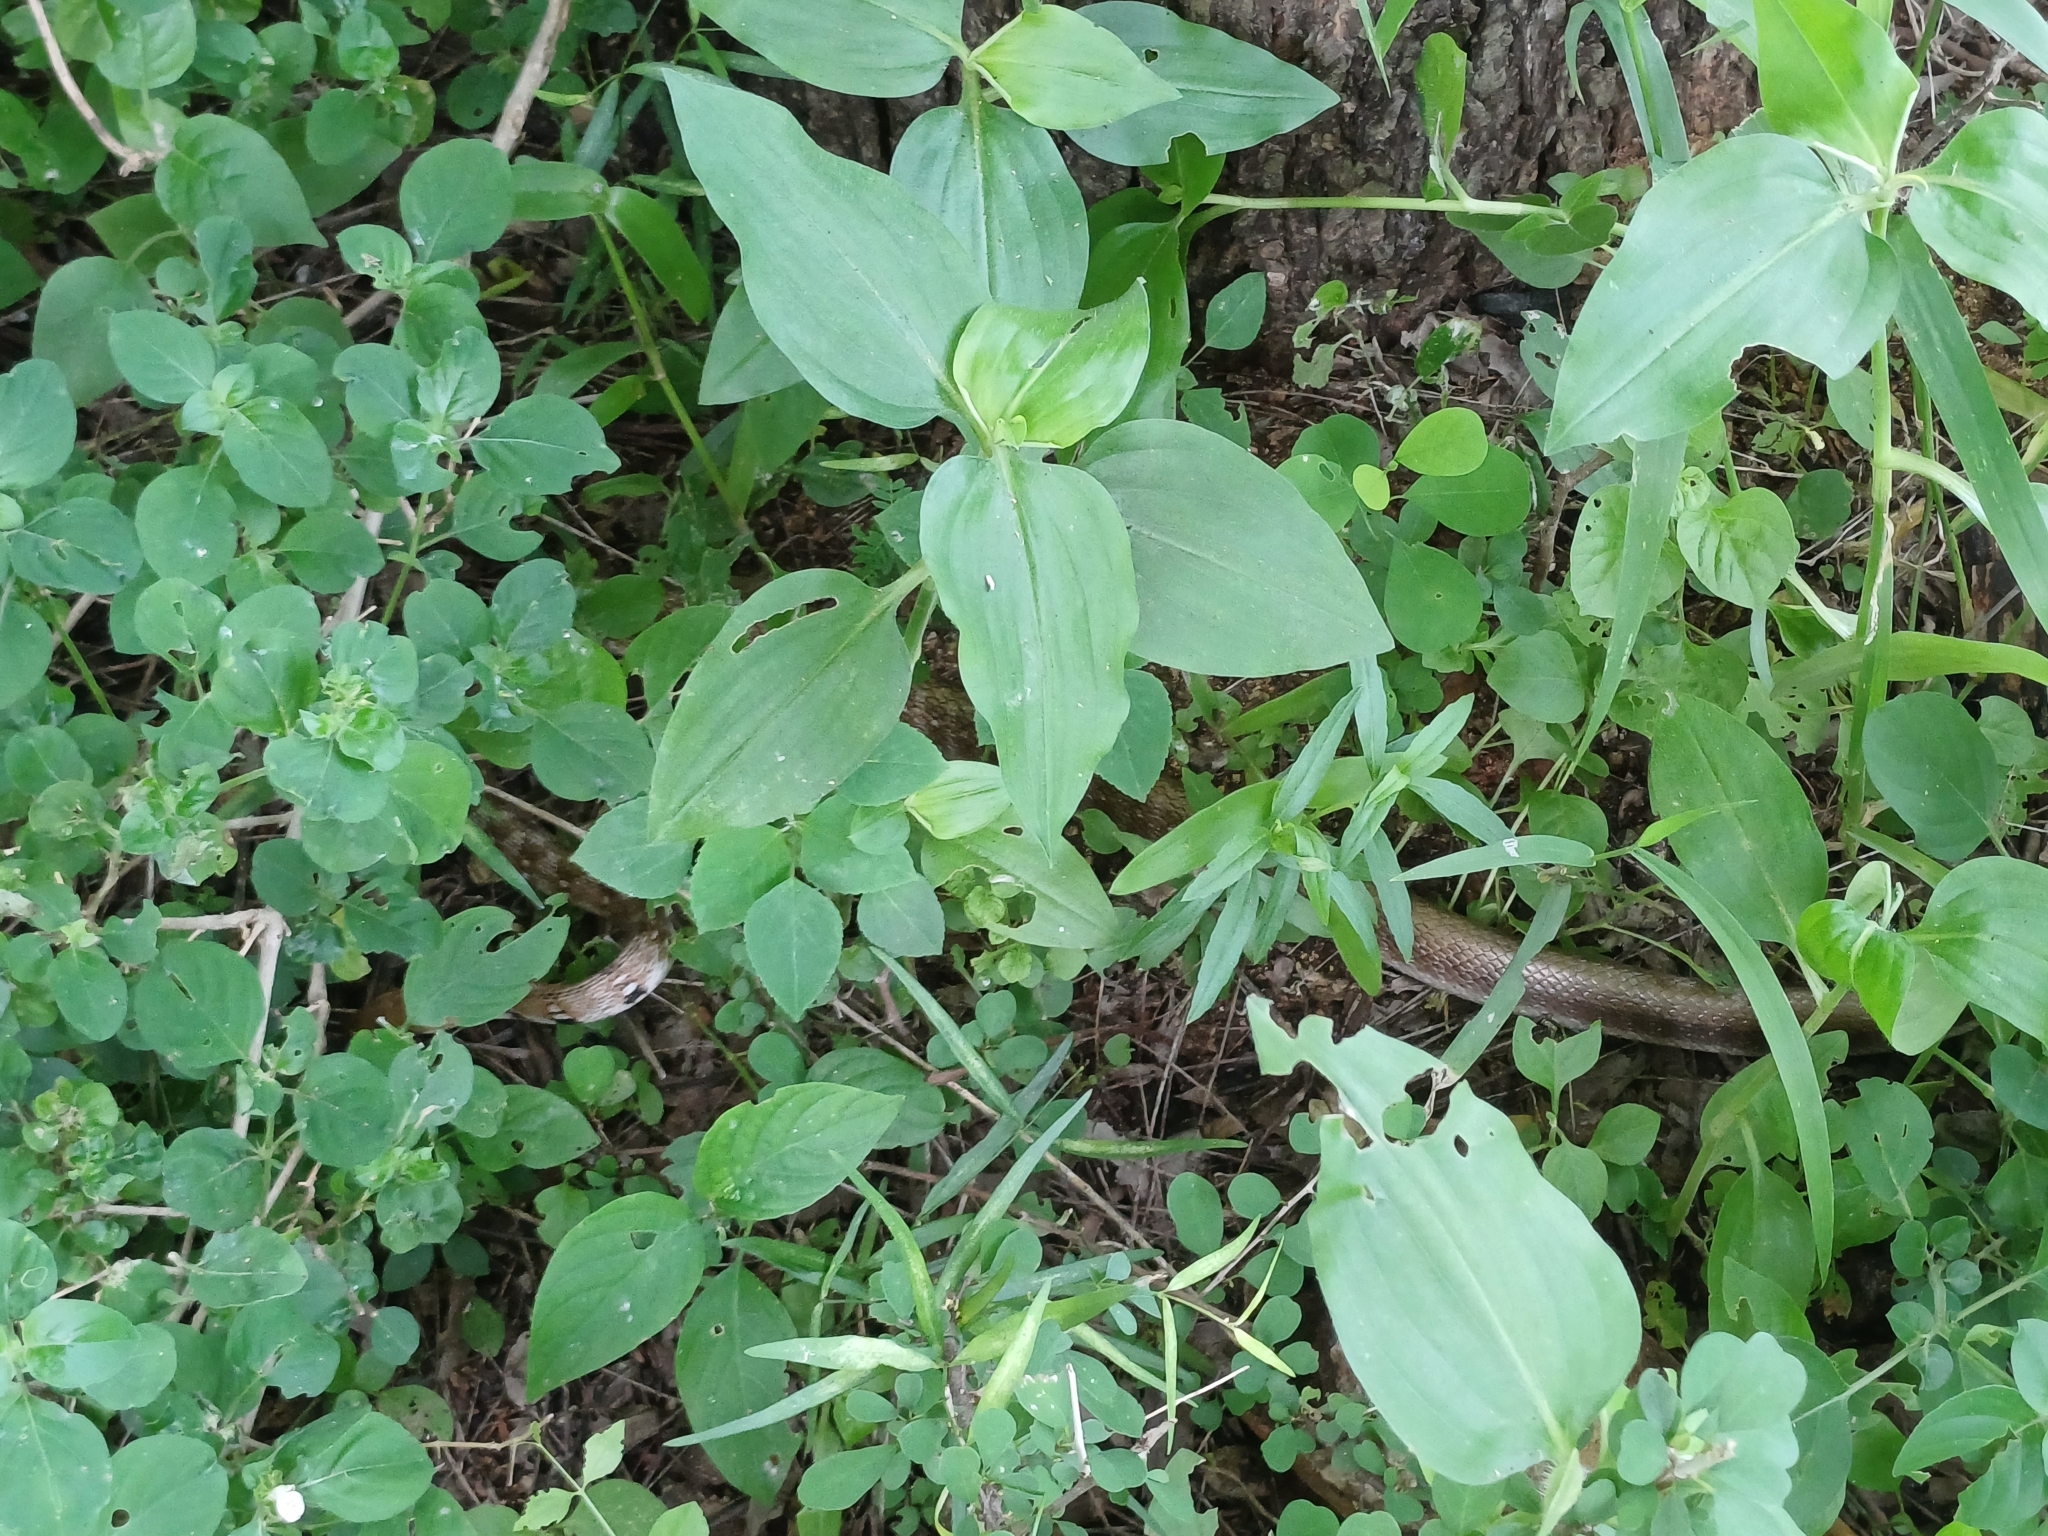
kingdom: Animalia
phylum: Chordata
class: Squamata
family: Colubridae
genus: Coelognathus
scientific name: Coelognathus helena
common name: Trinket snake
